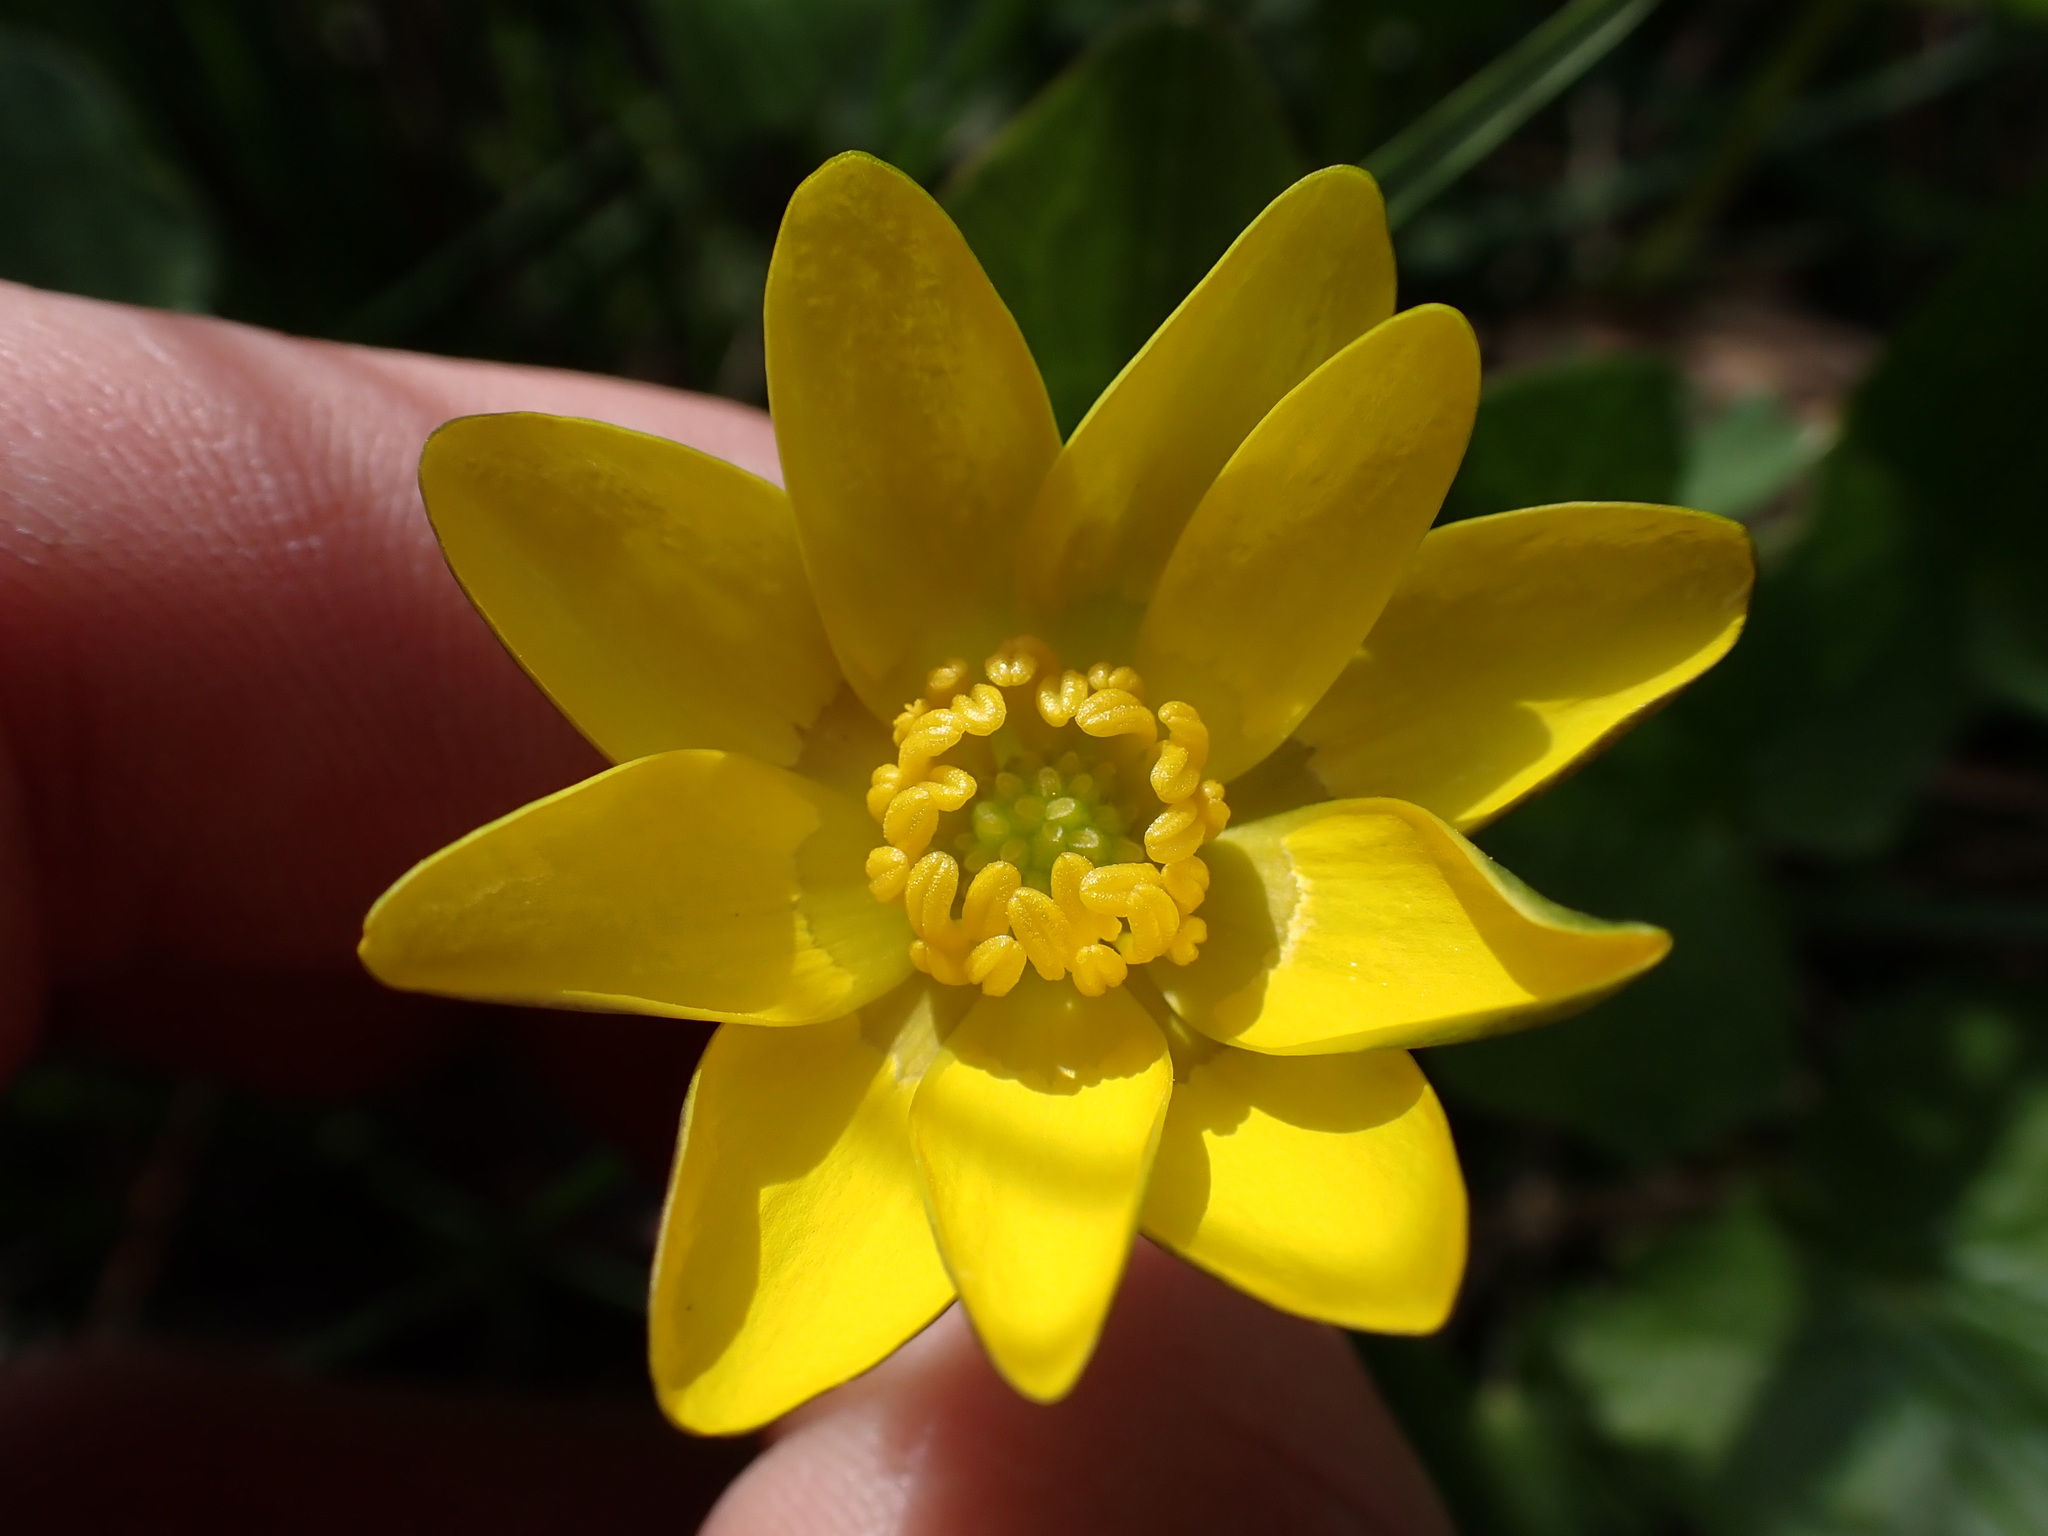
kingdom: Plantae
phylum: Tracheophyta
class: Magnoliopsida
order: Ranunculales
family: Ranunculaceae
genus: Ficaria
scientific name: Ficaria verna
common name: Lesser celandine
